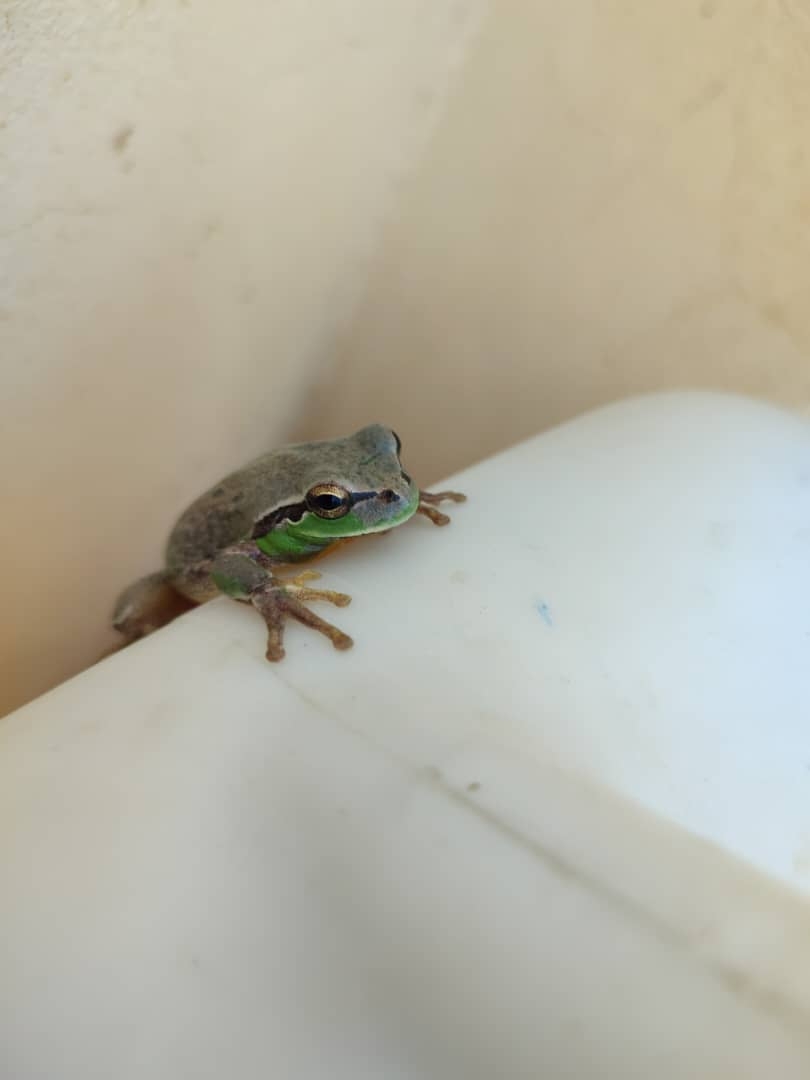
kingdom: Animalia
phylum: Chordata
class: Amphibia
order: Anura
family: Hylidae
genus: Hyla
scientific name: Hyla meridionalis
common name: Stripeless tree frog
